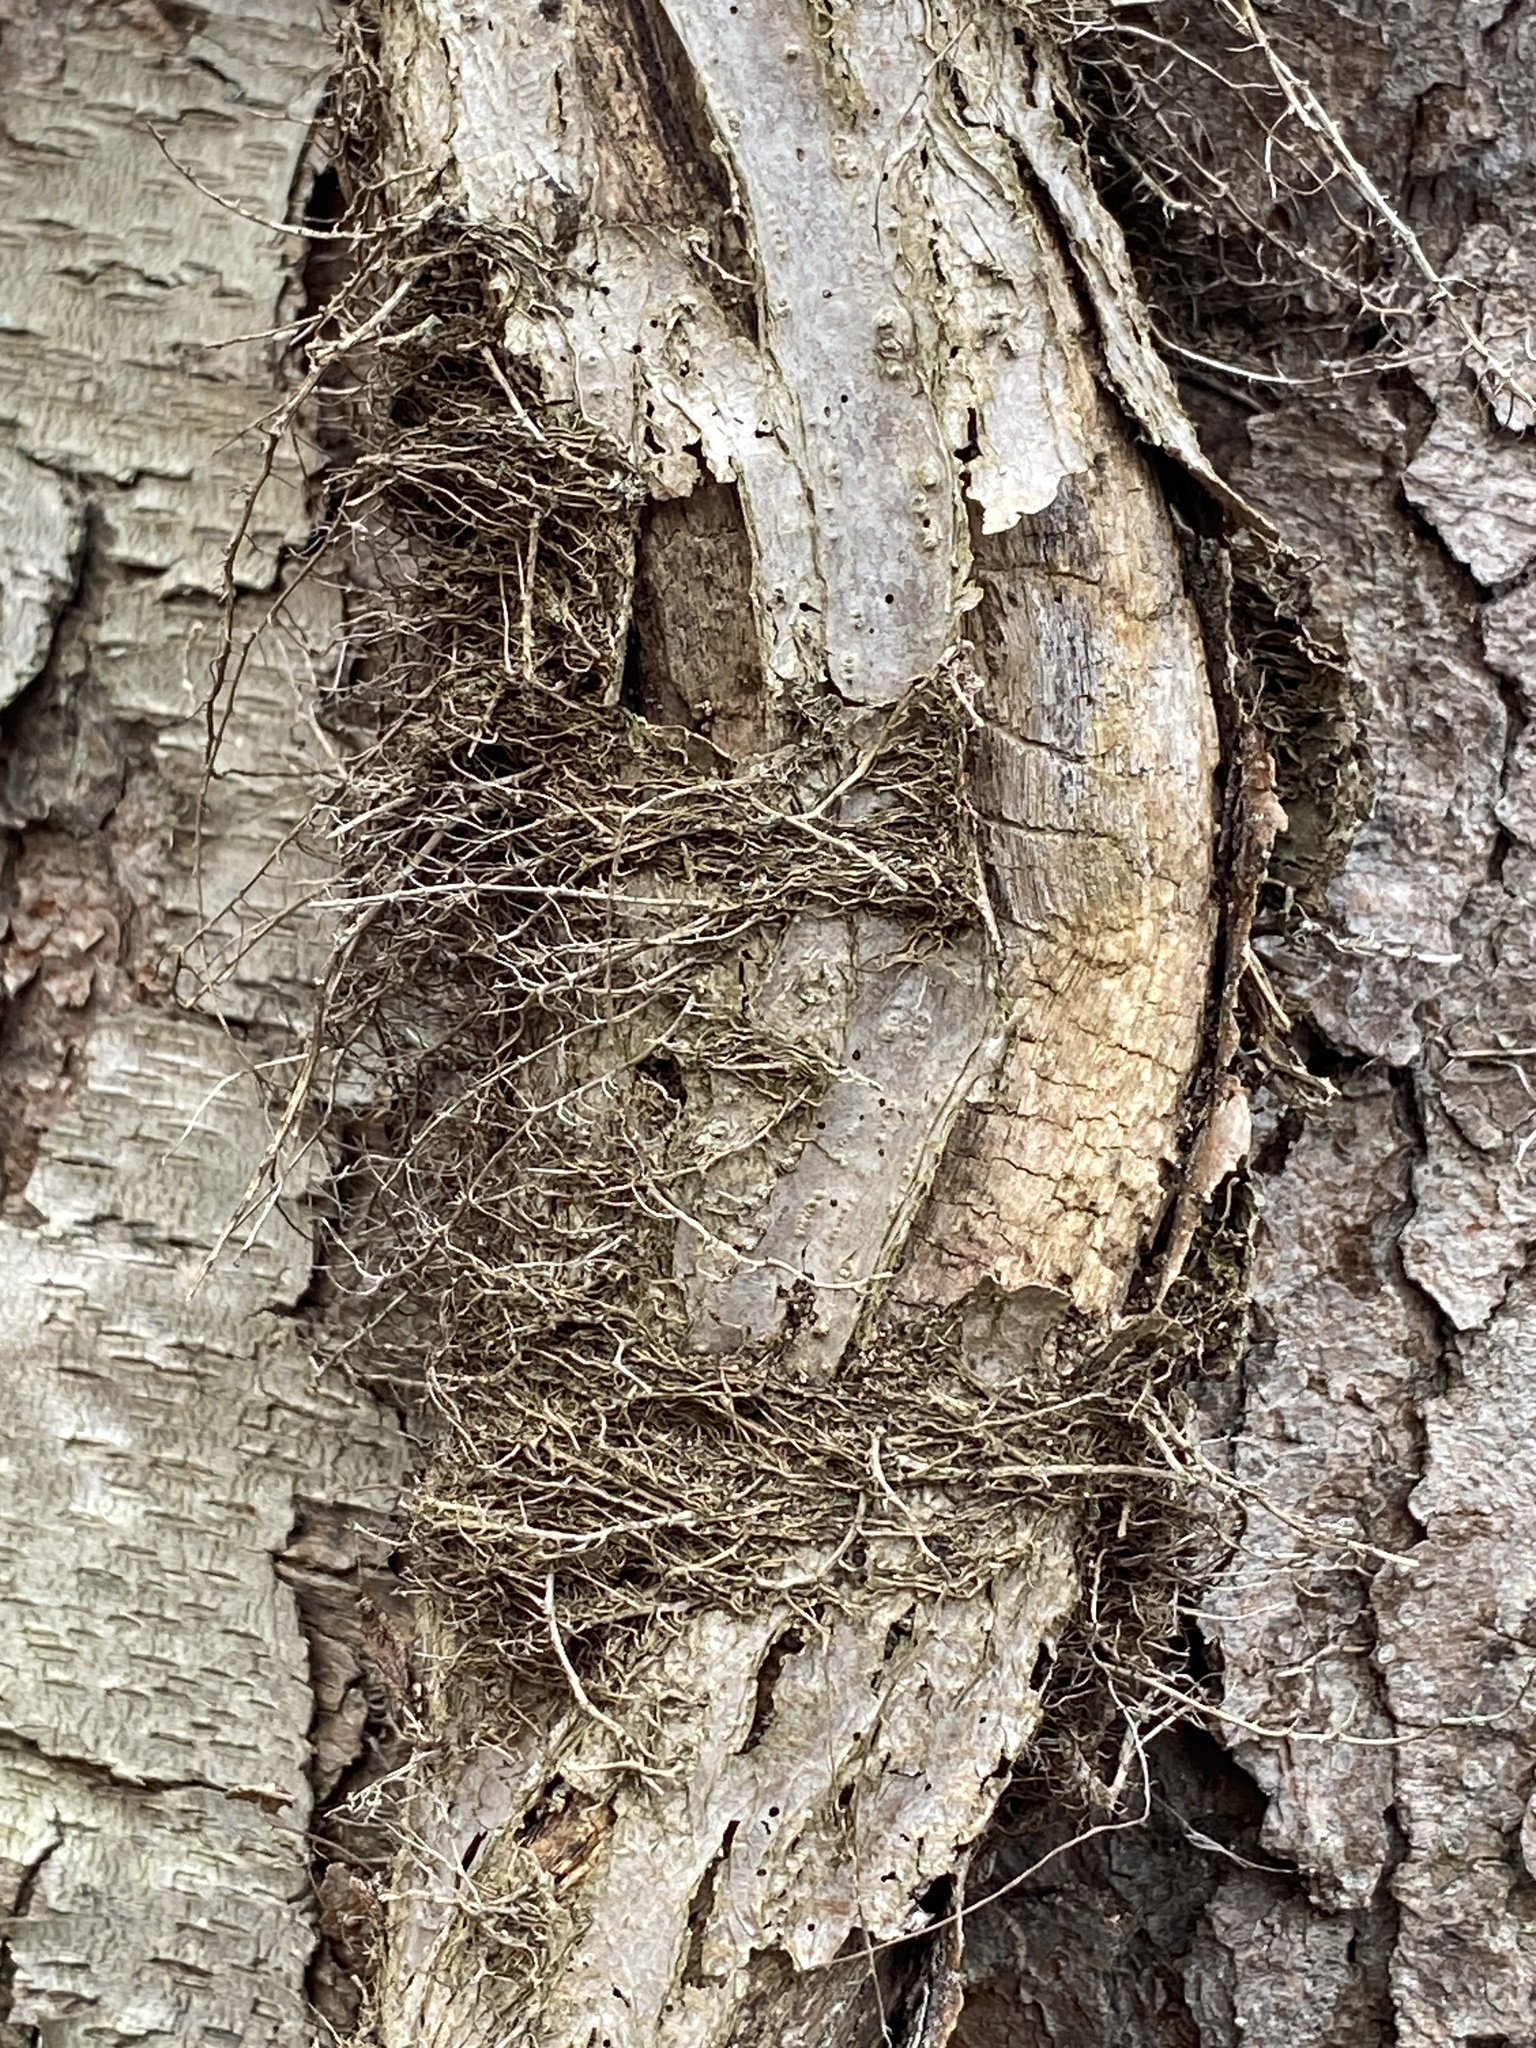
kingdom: Plantae
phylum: Tracheophyta
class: Magnoliopsida
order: Sapindales
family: Anacardiaceae
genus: Toxicodendron
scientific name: Toxicodendron radicans
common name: Poison ivy
